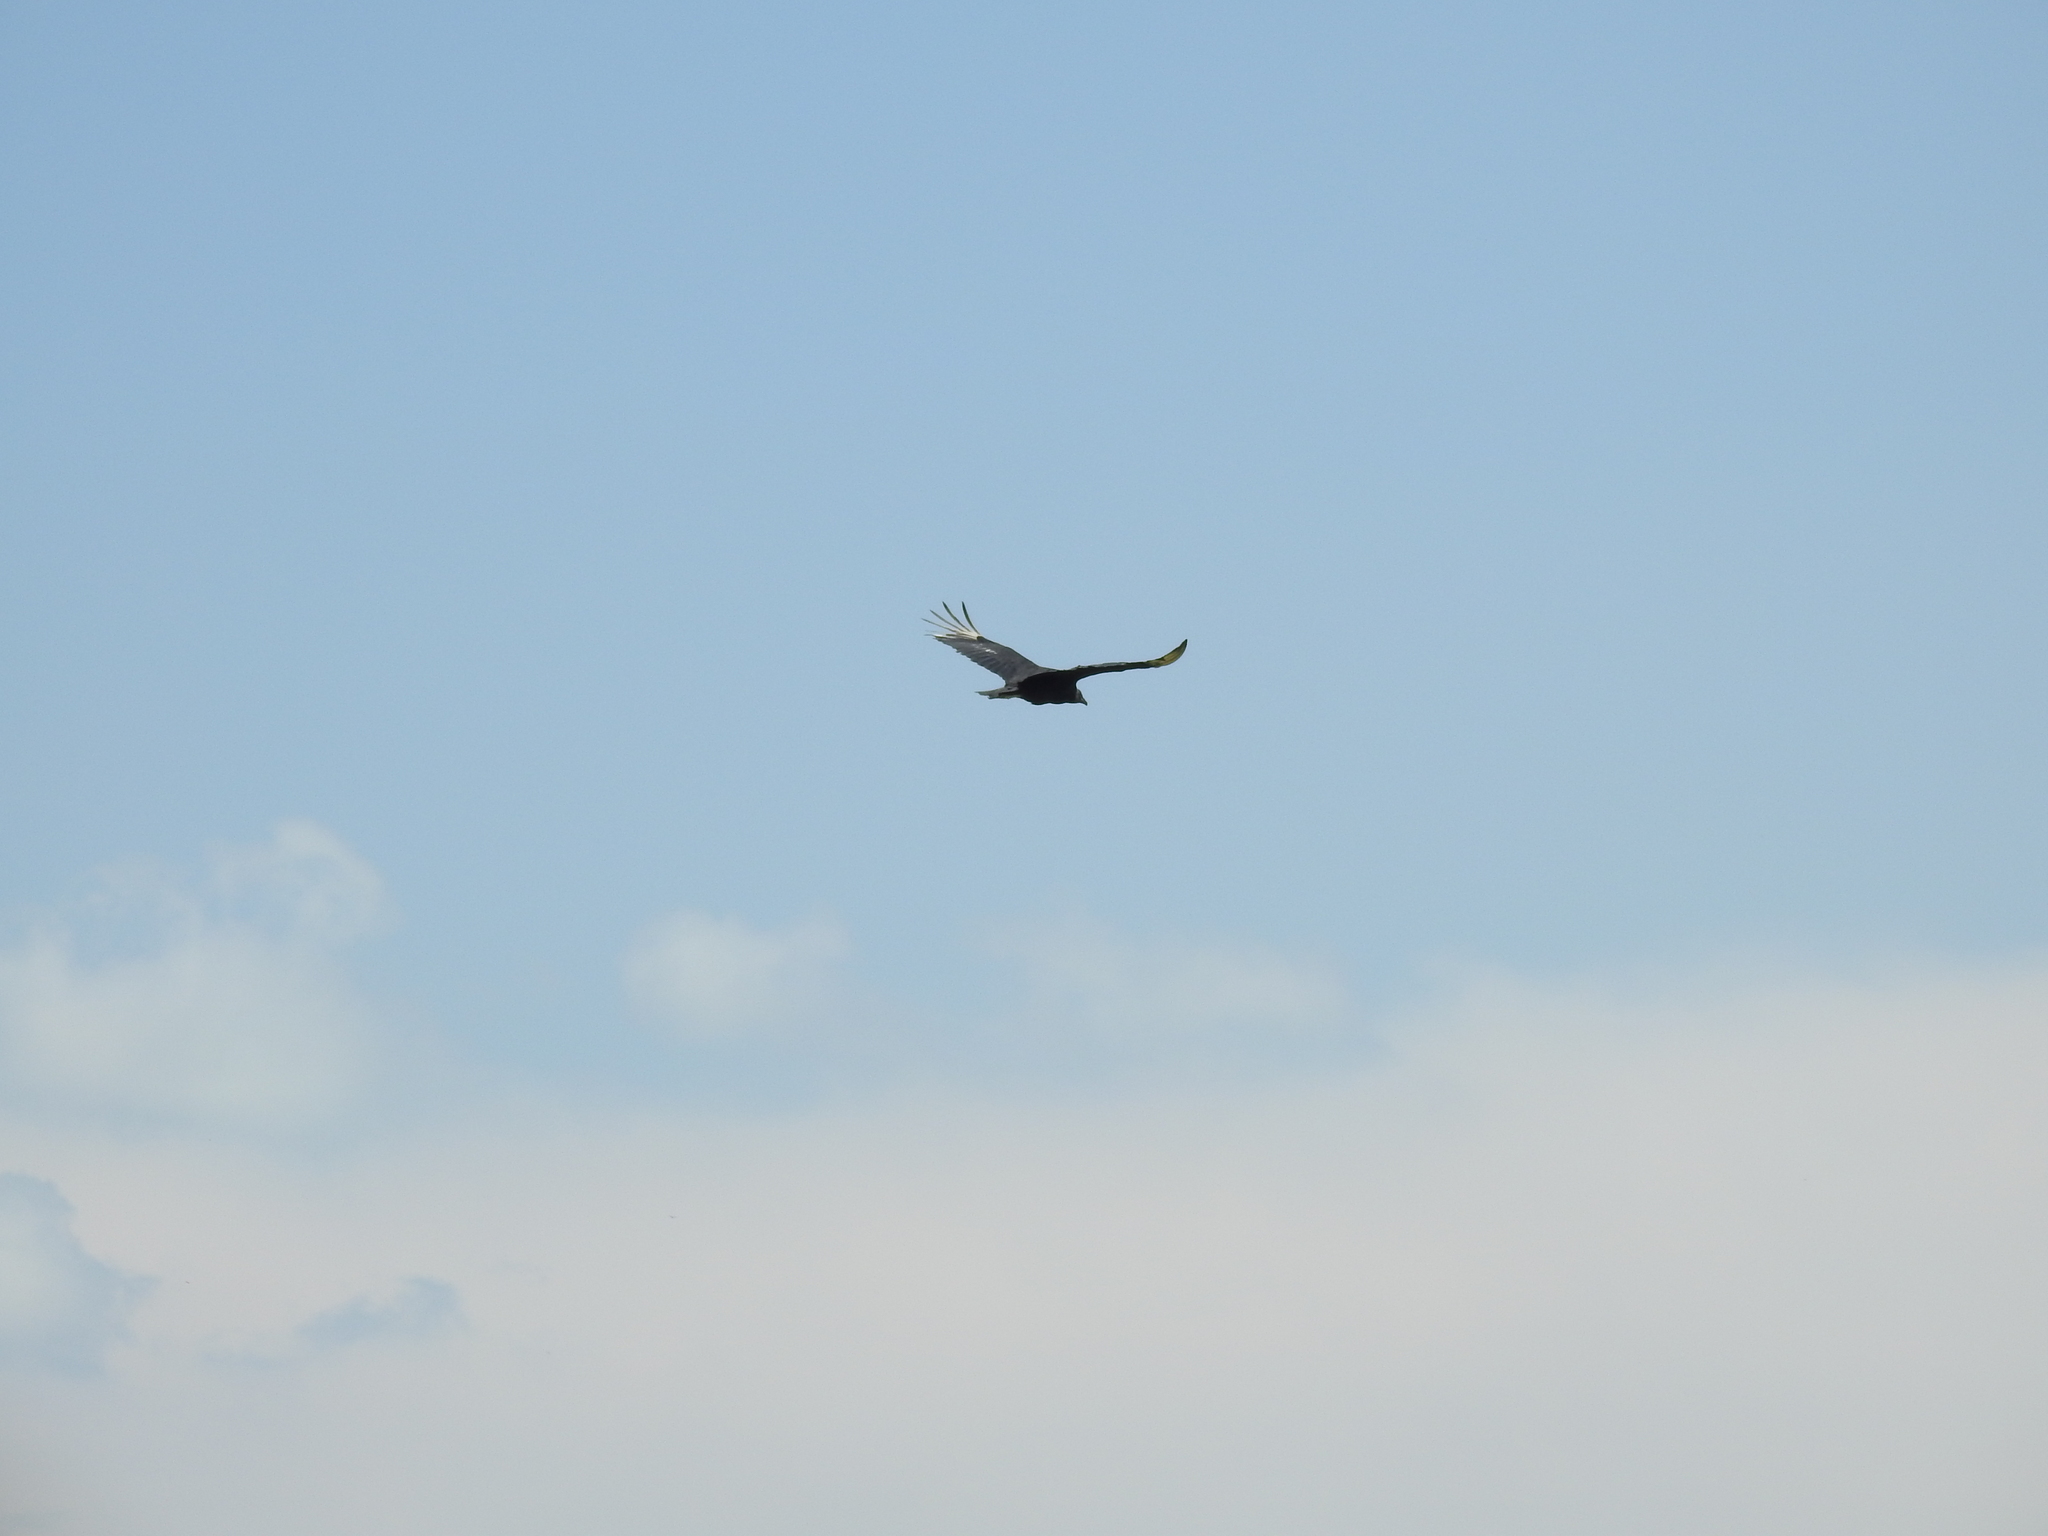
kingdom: Animalia
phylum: Chordata
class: Aves
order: Accipitriformes
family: Cathartidae
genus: Coragyps
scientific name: Coragyps atratus
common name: Black vulture
